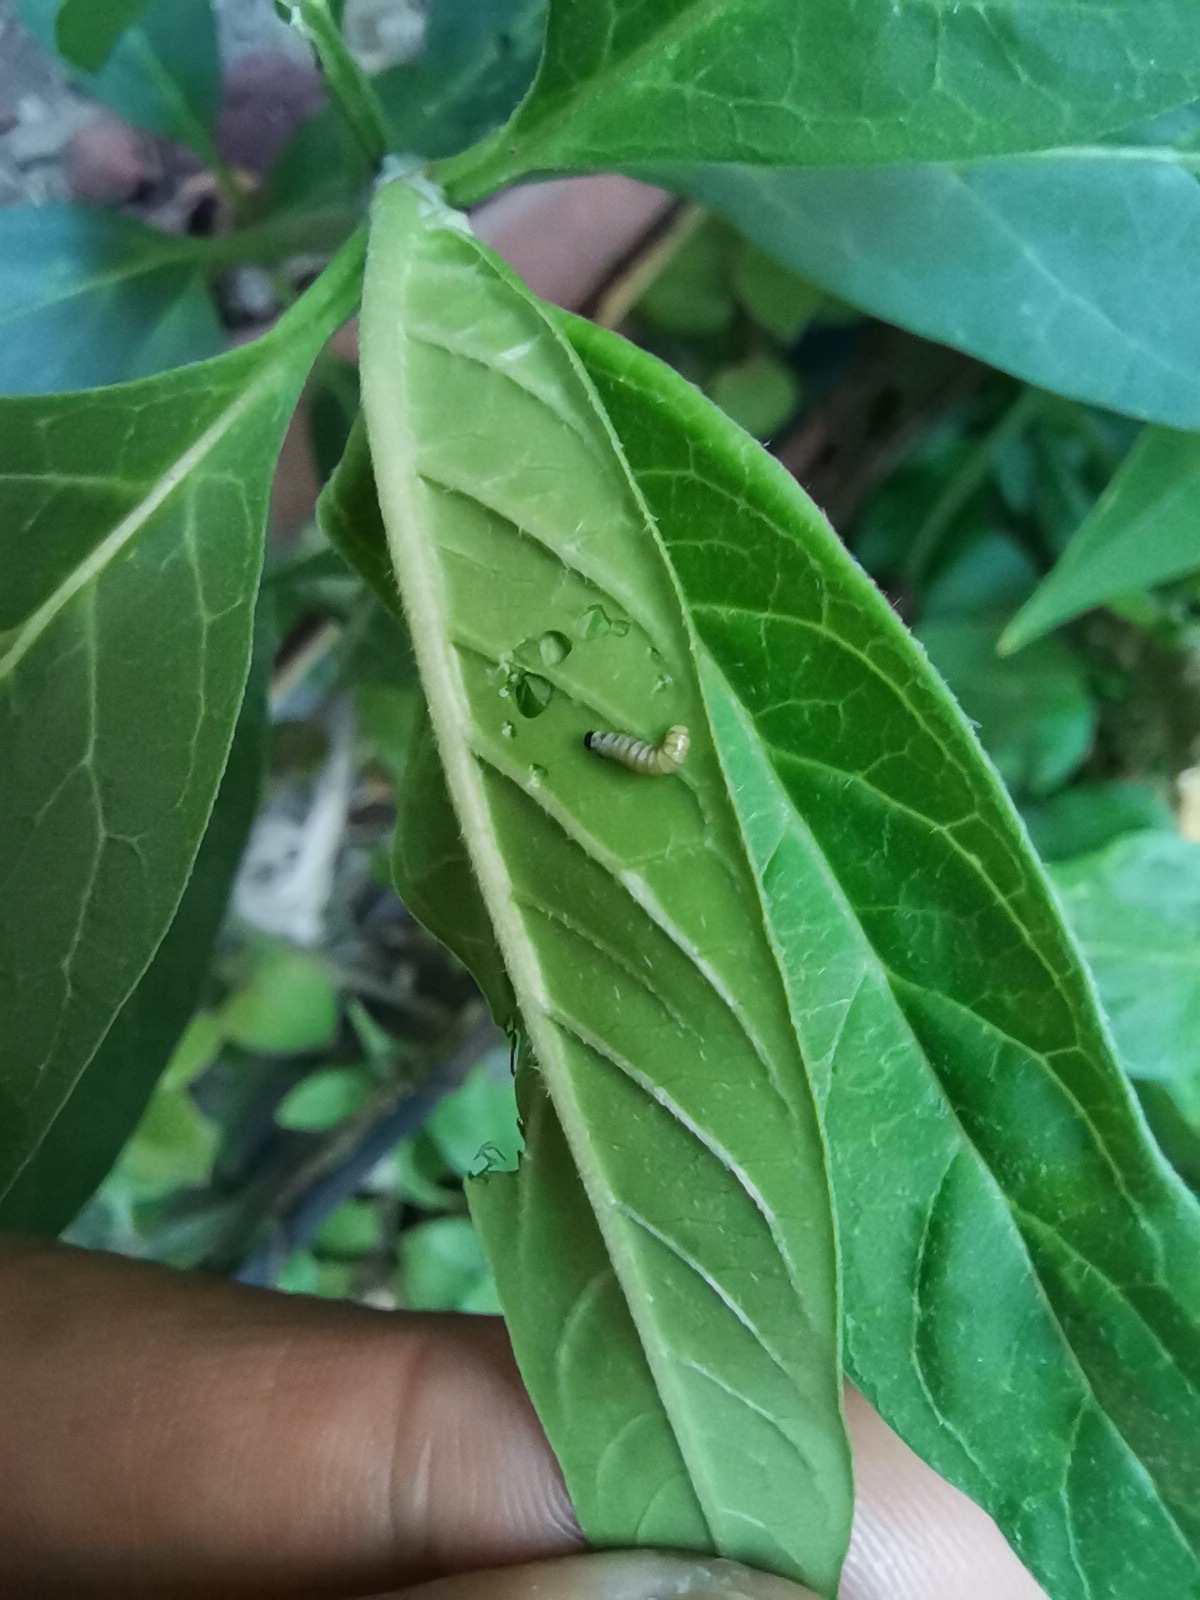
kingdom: Animalia
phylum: Arthropoda
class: Insecta
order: Lepidoptera
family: Nymphalidae
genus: Danaus
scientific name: Danaus plexippus
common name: Monarch
